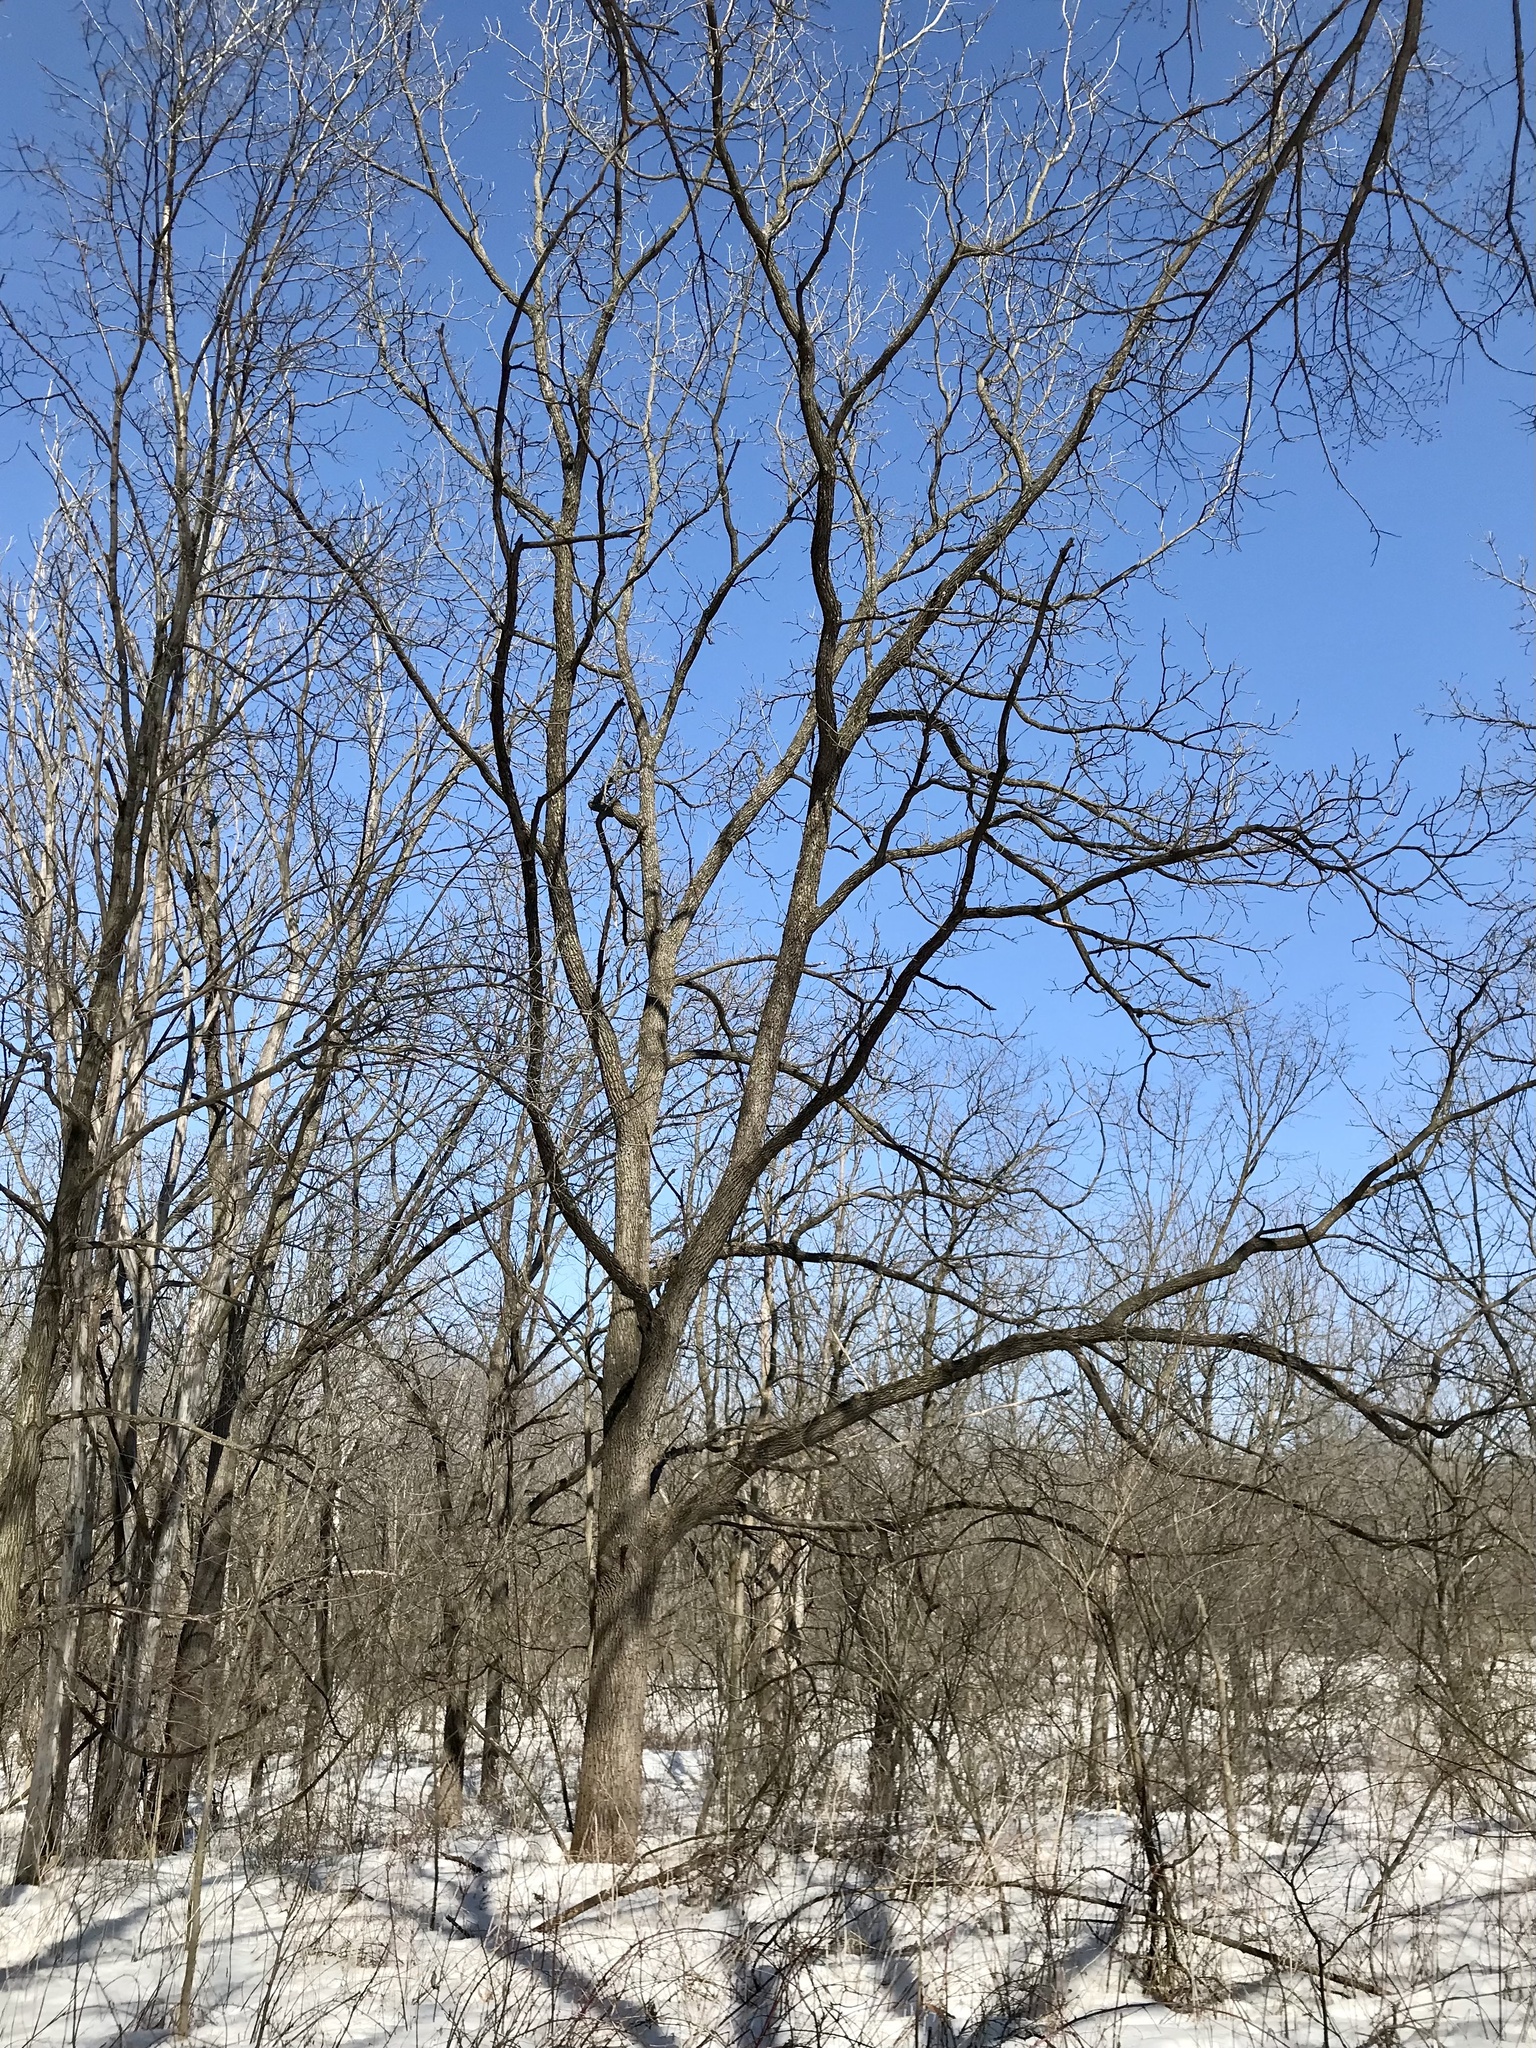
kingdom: Plantae
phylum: Tracheophyta
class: Magnoliopsida
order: Fagales
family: Juglandaceae
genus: Juglans
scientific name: Juglans nigra
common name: Black walnut
